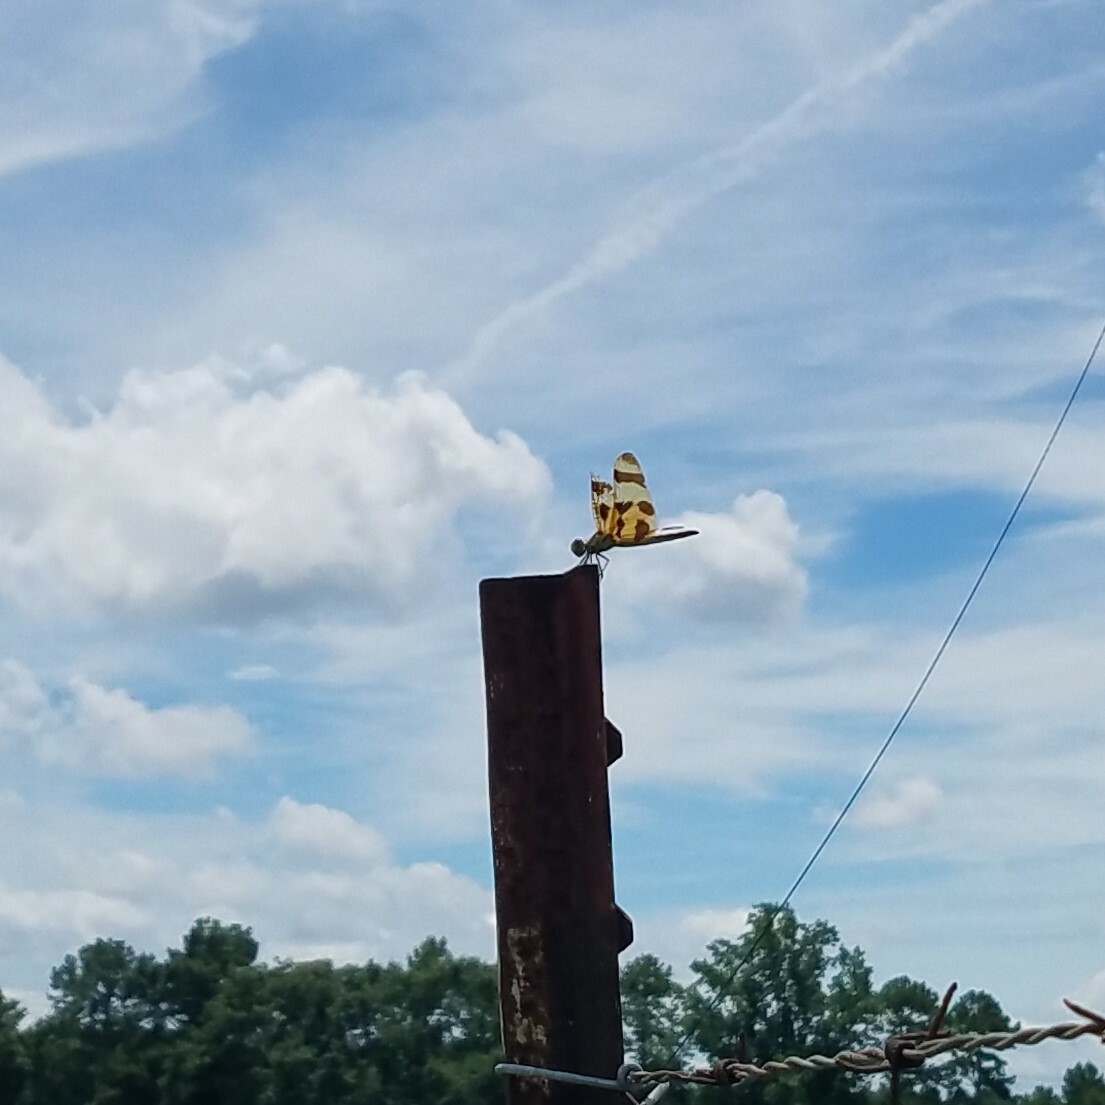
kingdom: Animalia
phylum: Arthropoda
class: Insecta
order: Odonata
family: Libellulidae
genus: Celithemis
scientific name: Celithemis eponina
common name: Halloween pennant
